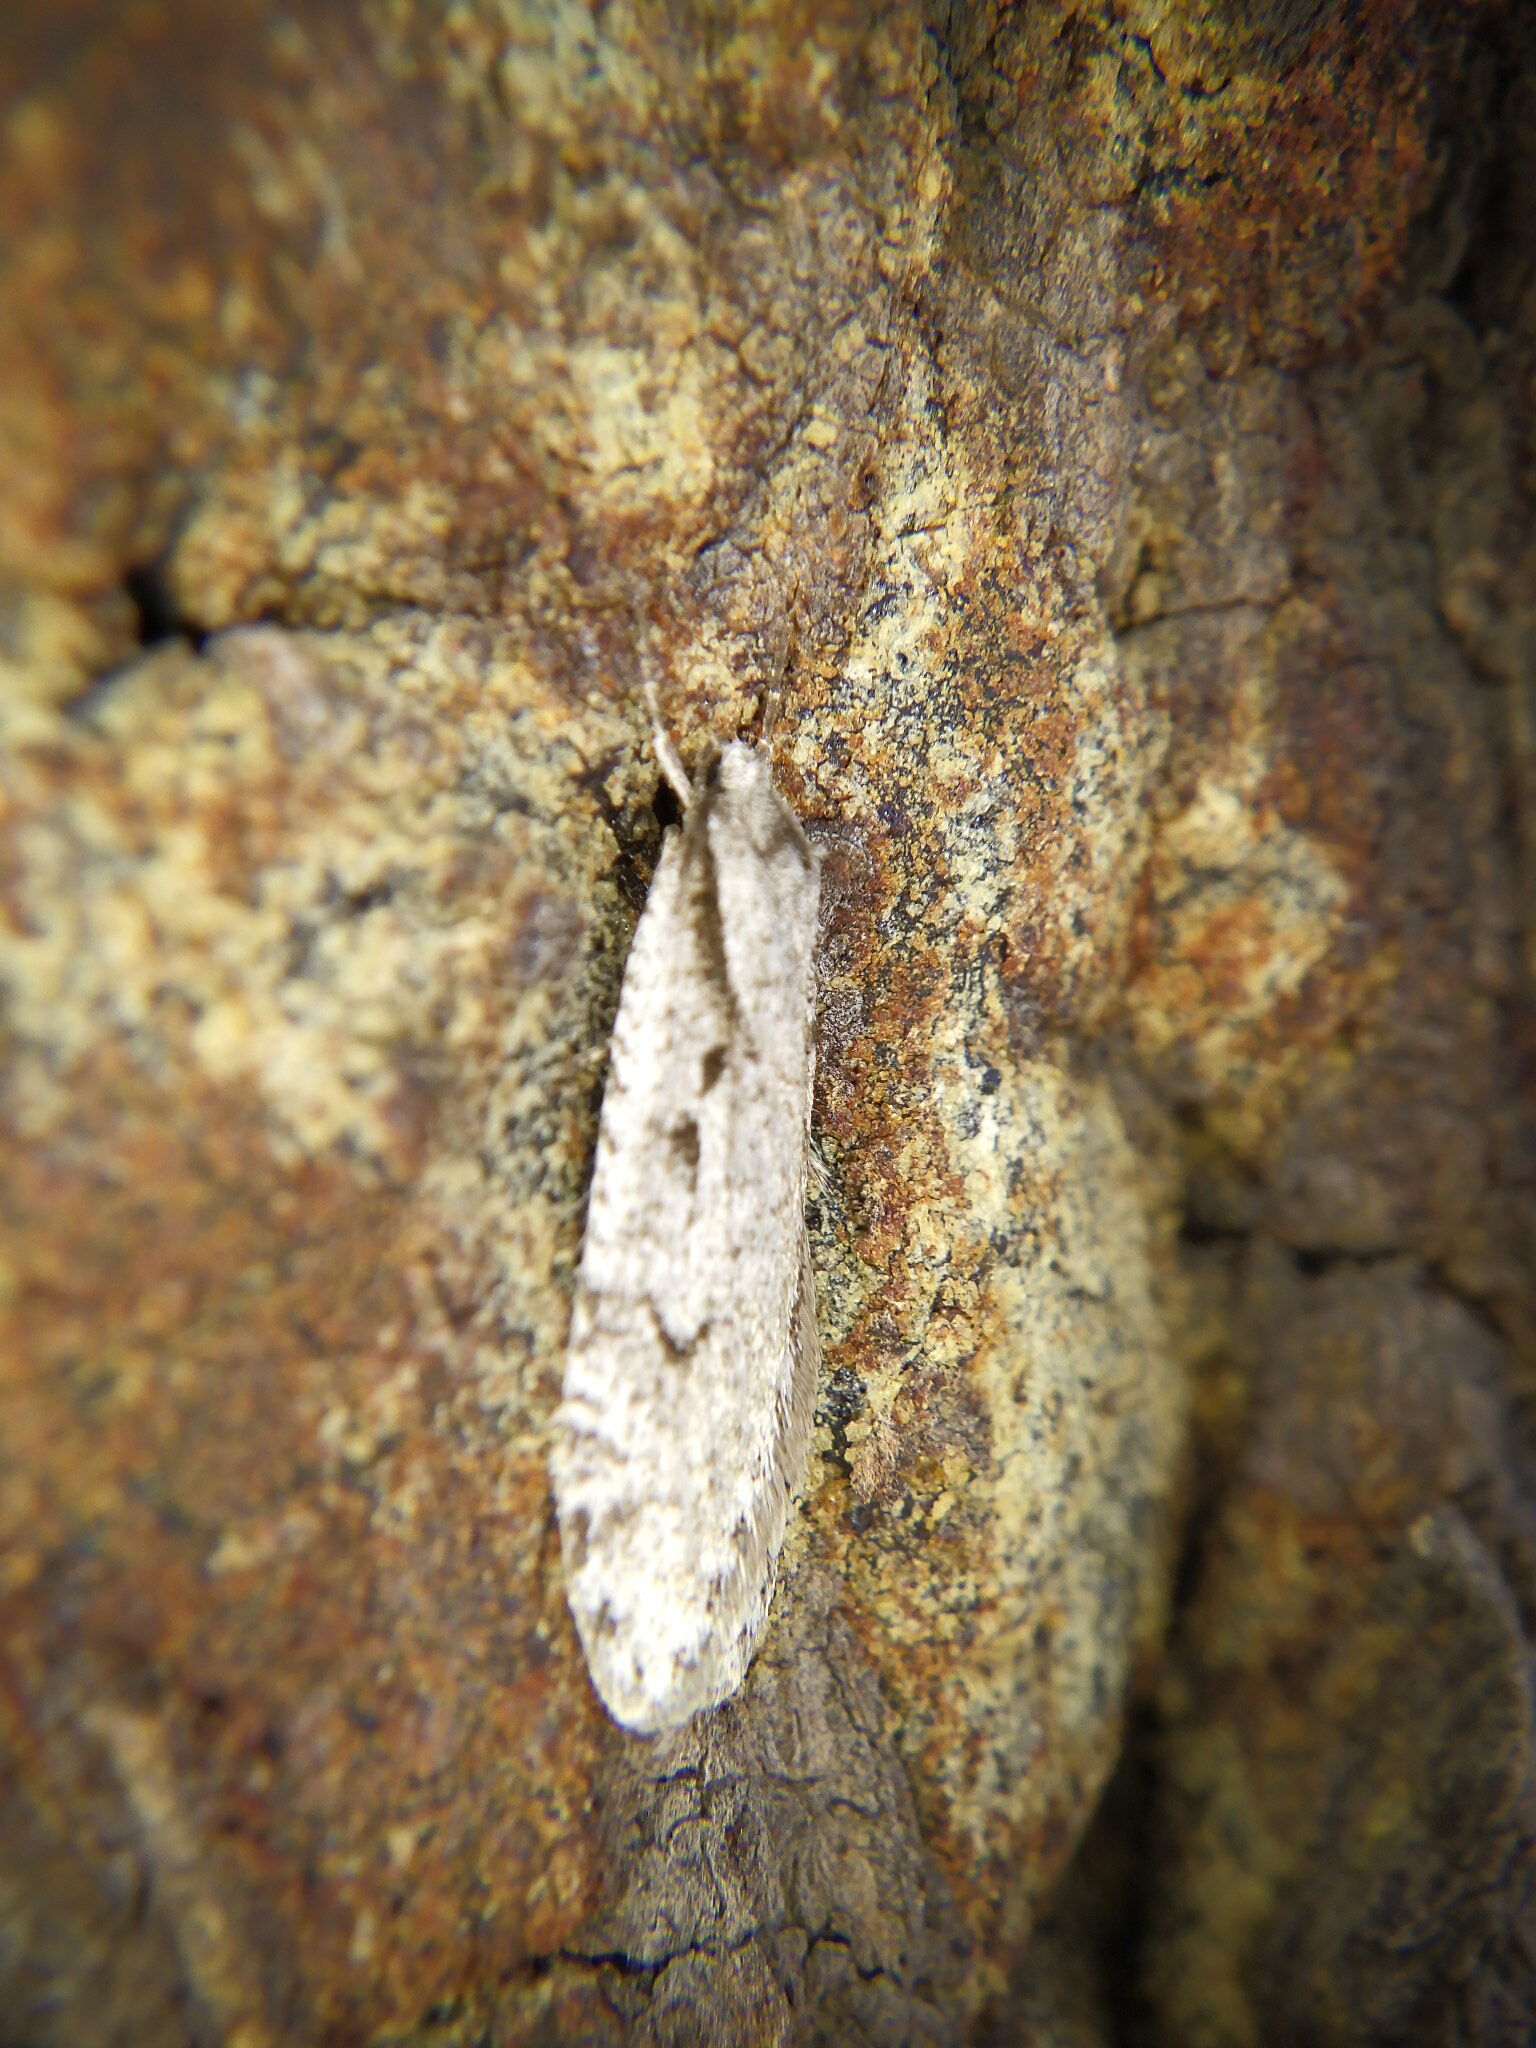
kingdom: Animalia
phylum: Arthropoda
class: Insecta
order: Lepidoptera
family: Depressariidae
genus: Semioscopis
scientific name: Semioscopis avellanella
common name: Early flat-body
